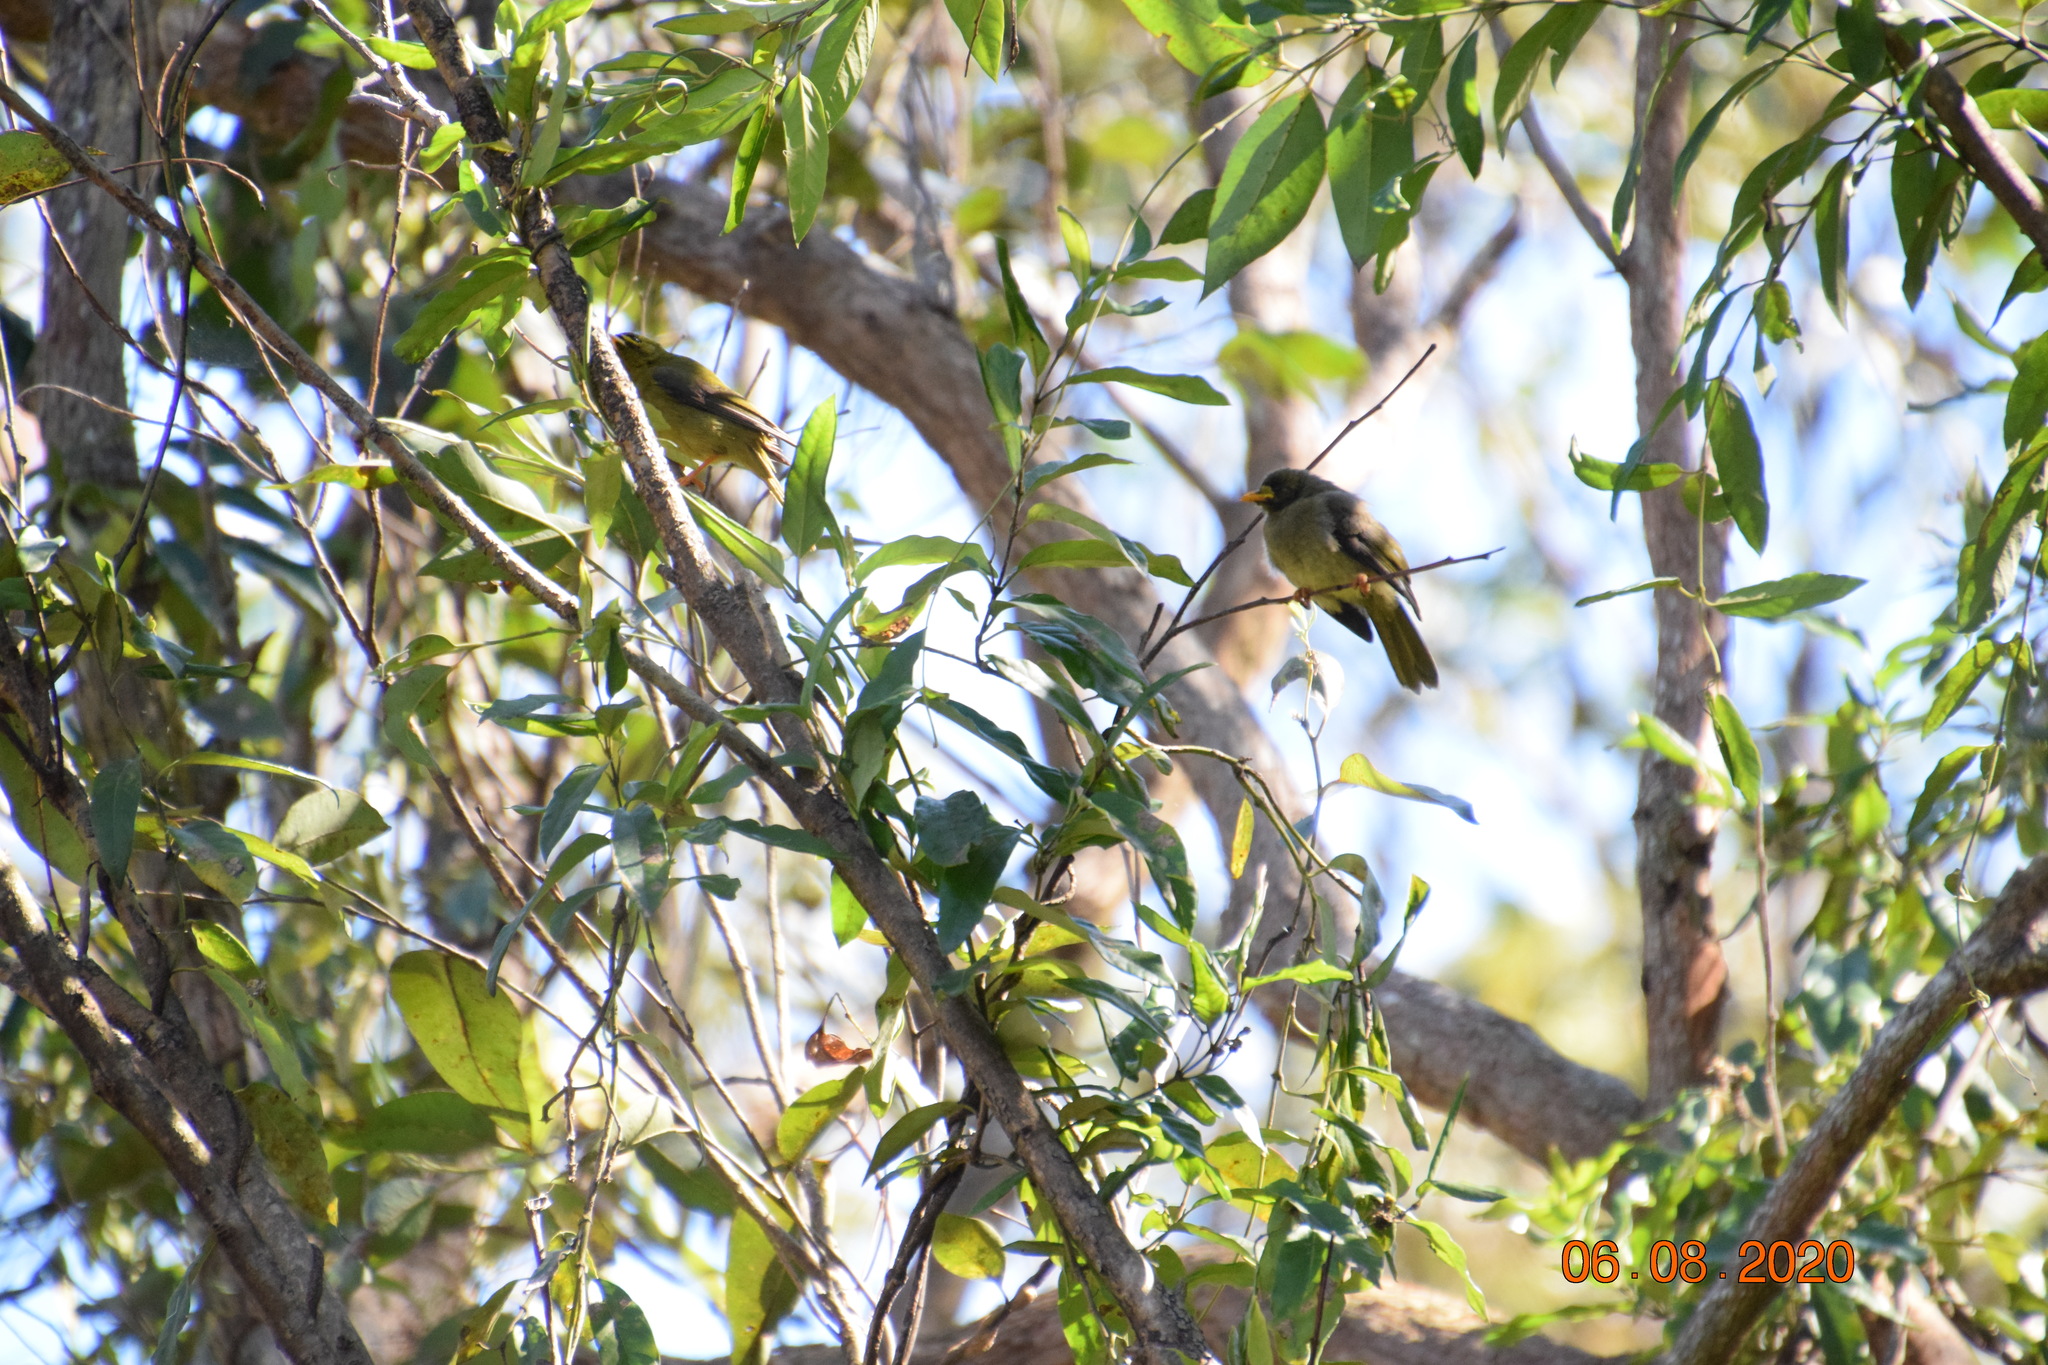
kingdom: Animalia
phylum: Chordata
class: Aves
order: Passeriformes
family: Meliphagidae
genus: Manorina
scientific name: Manorina melanophrys
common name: Bell miner
